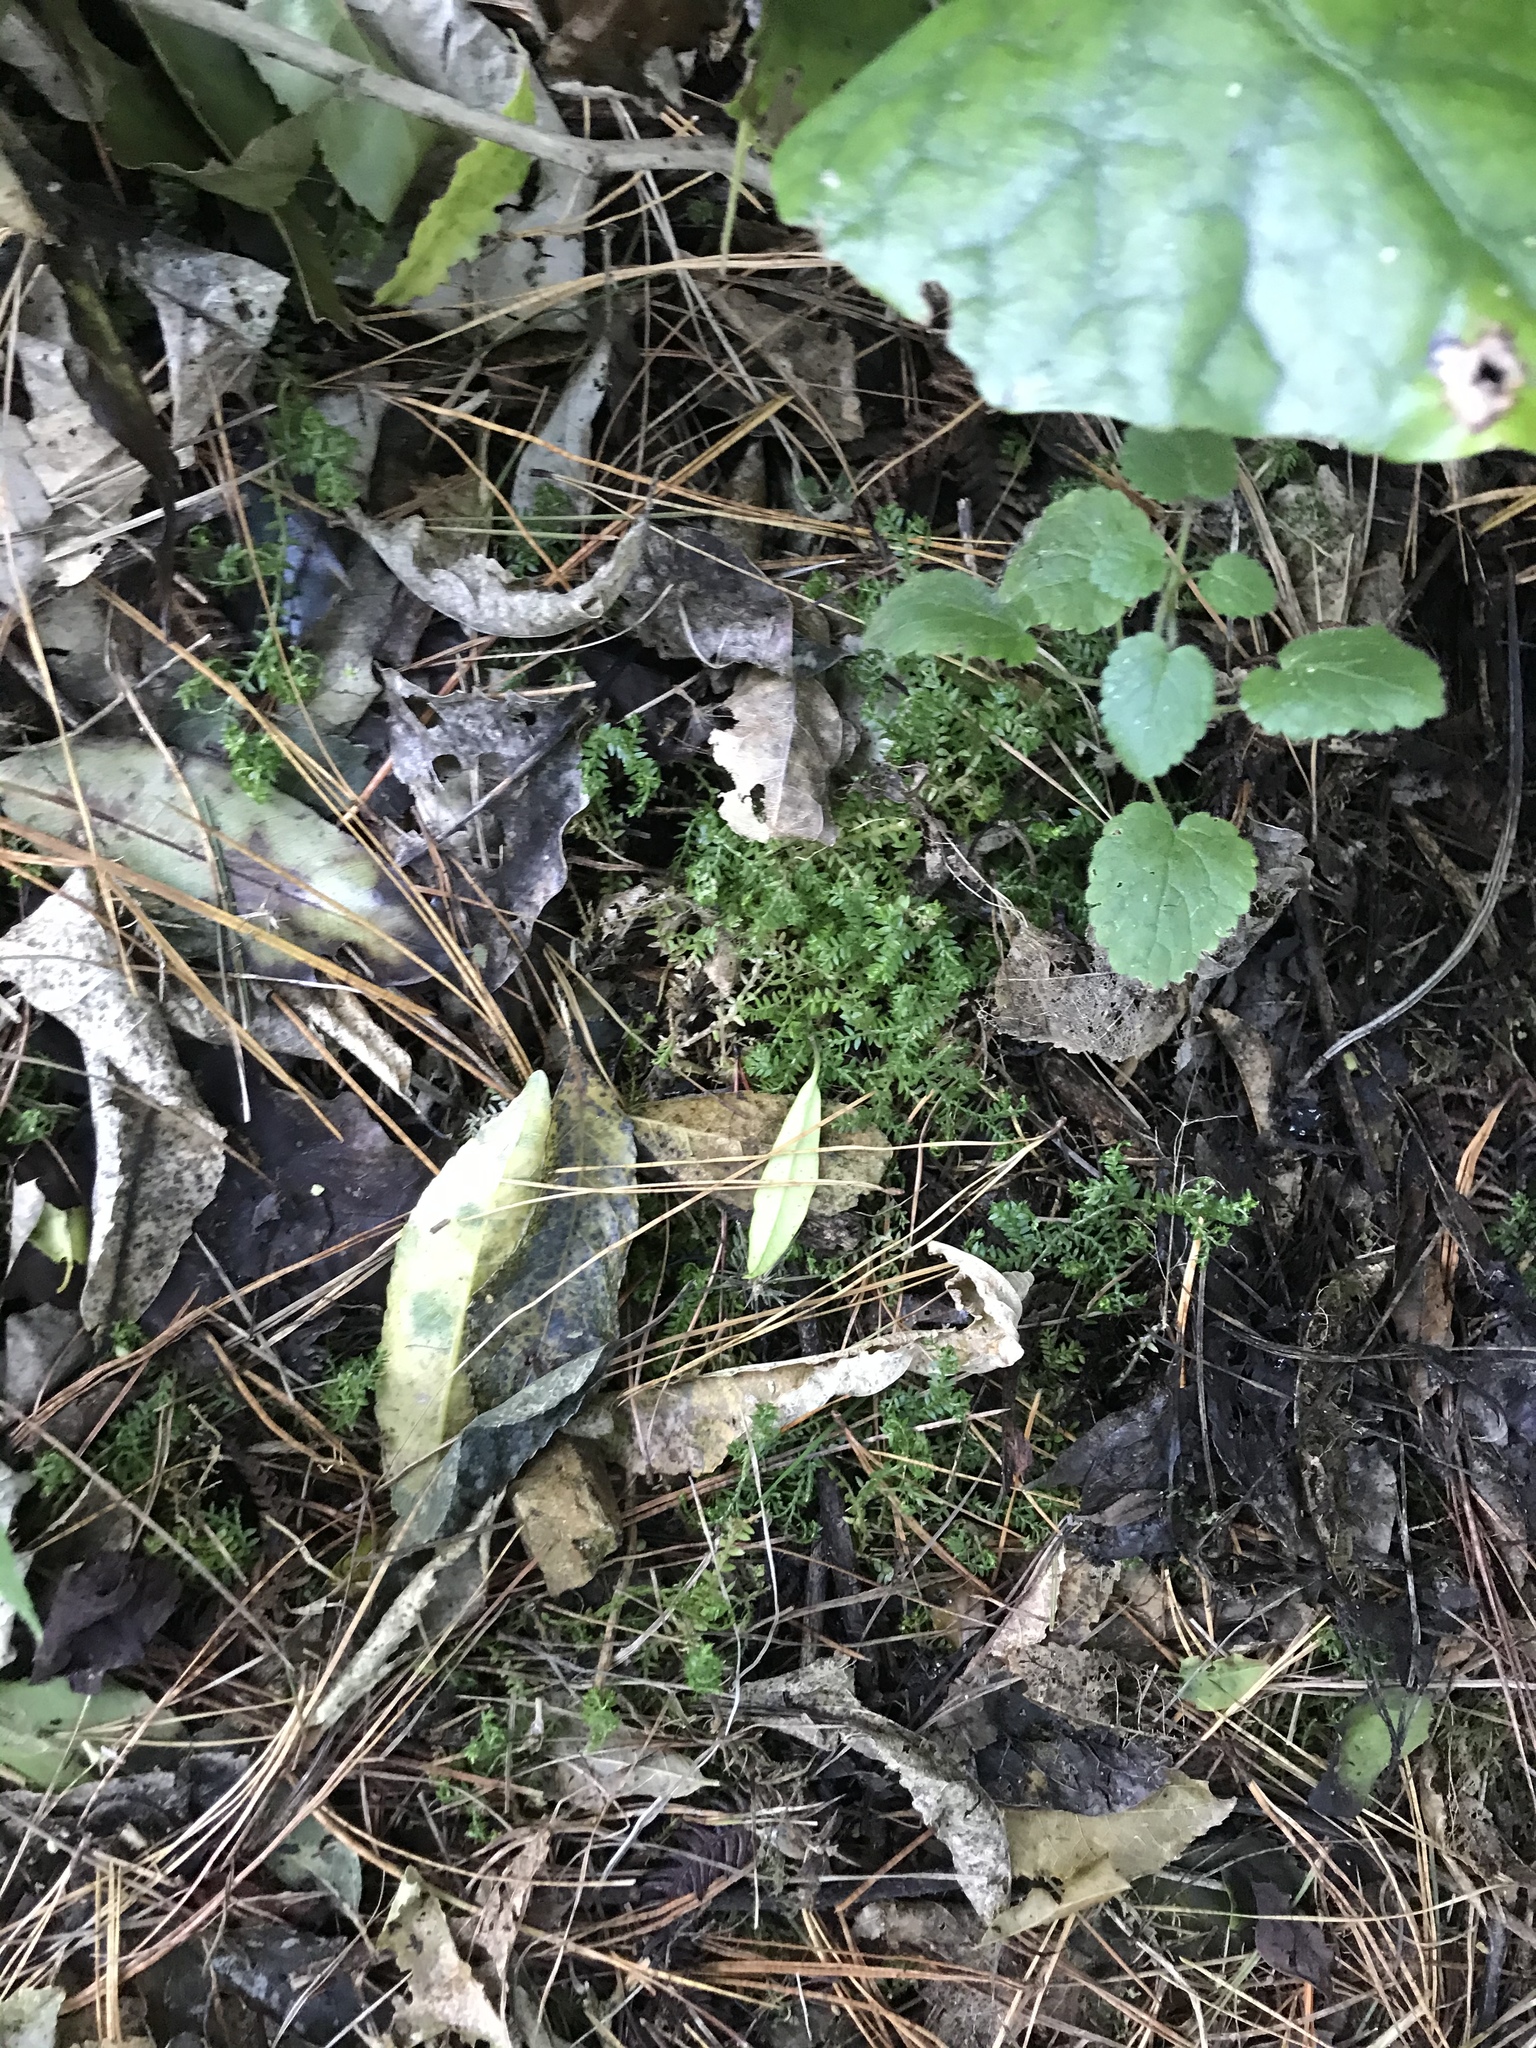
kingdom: Plantae
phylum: Tracheophyta
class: Lycopodiopsida
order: Selaginellales
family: Selaginellaceae
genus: Selaginella
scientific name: Selaginella kraussiana
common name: Krauss' spikemoss
